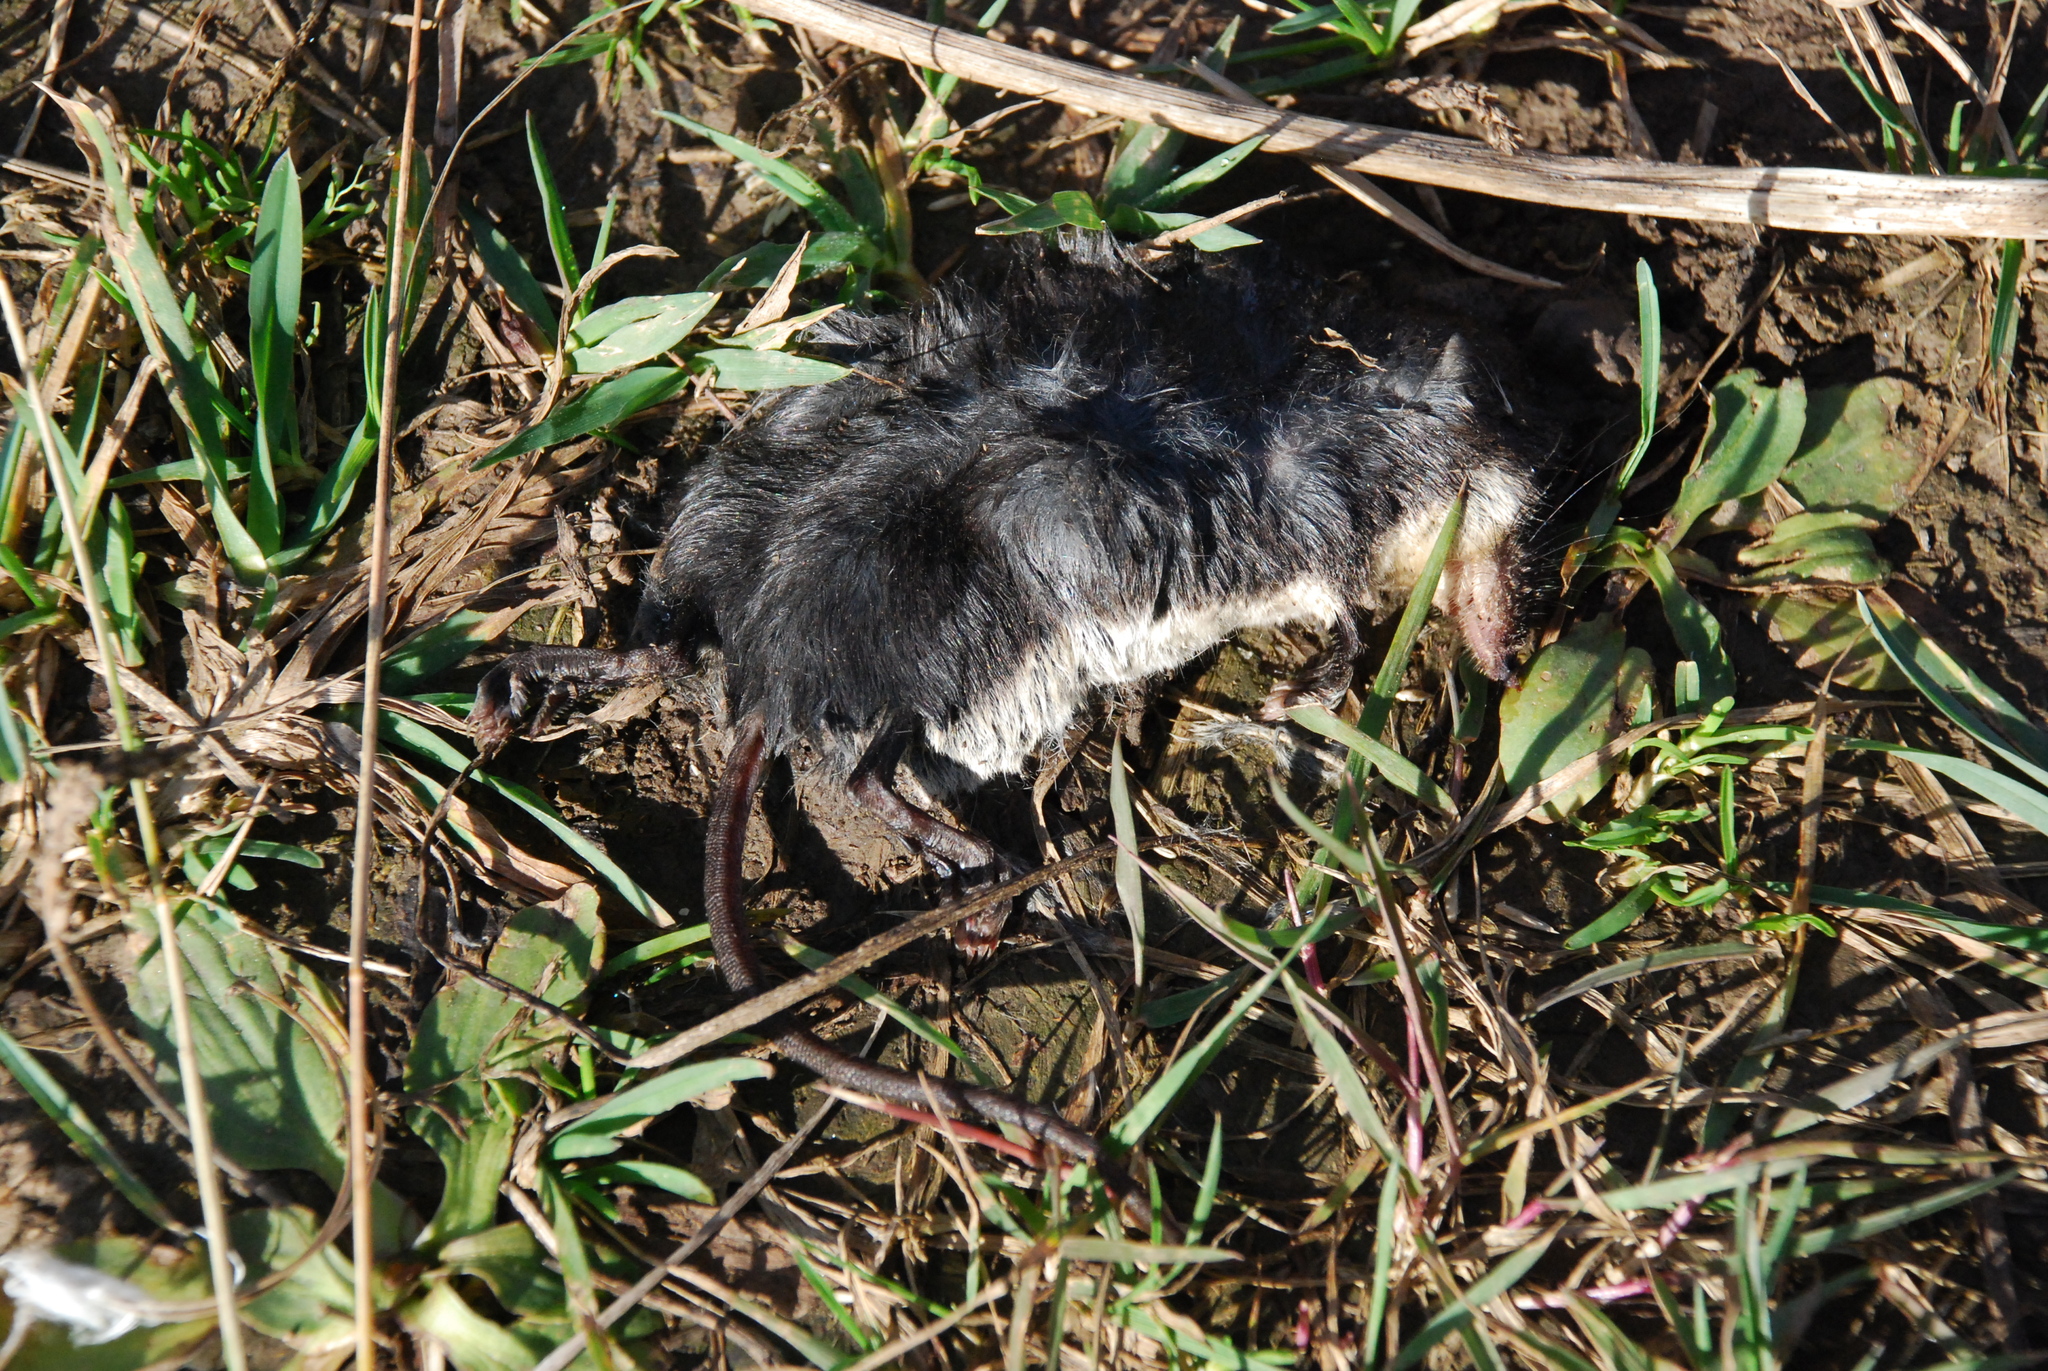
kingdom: Animalia
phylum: Chordata
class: Mammalia
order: Soricomorpha
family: Soricidae
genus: Neomys
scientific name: Neomys fodiens
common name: Eurasian water shrew
